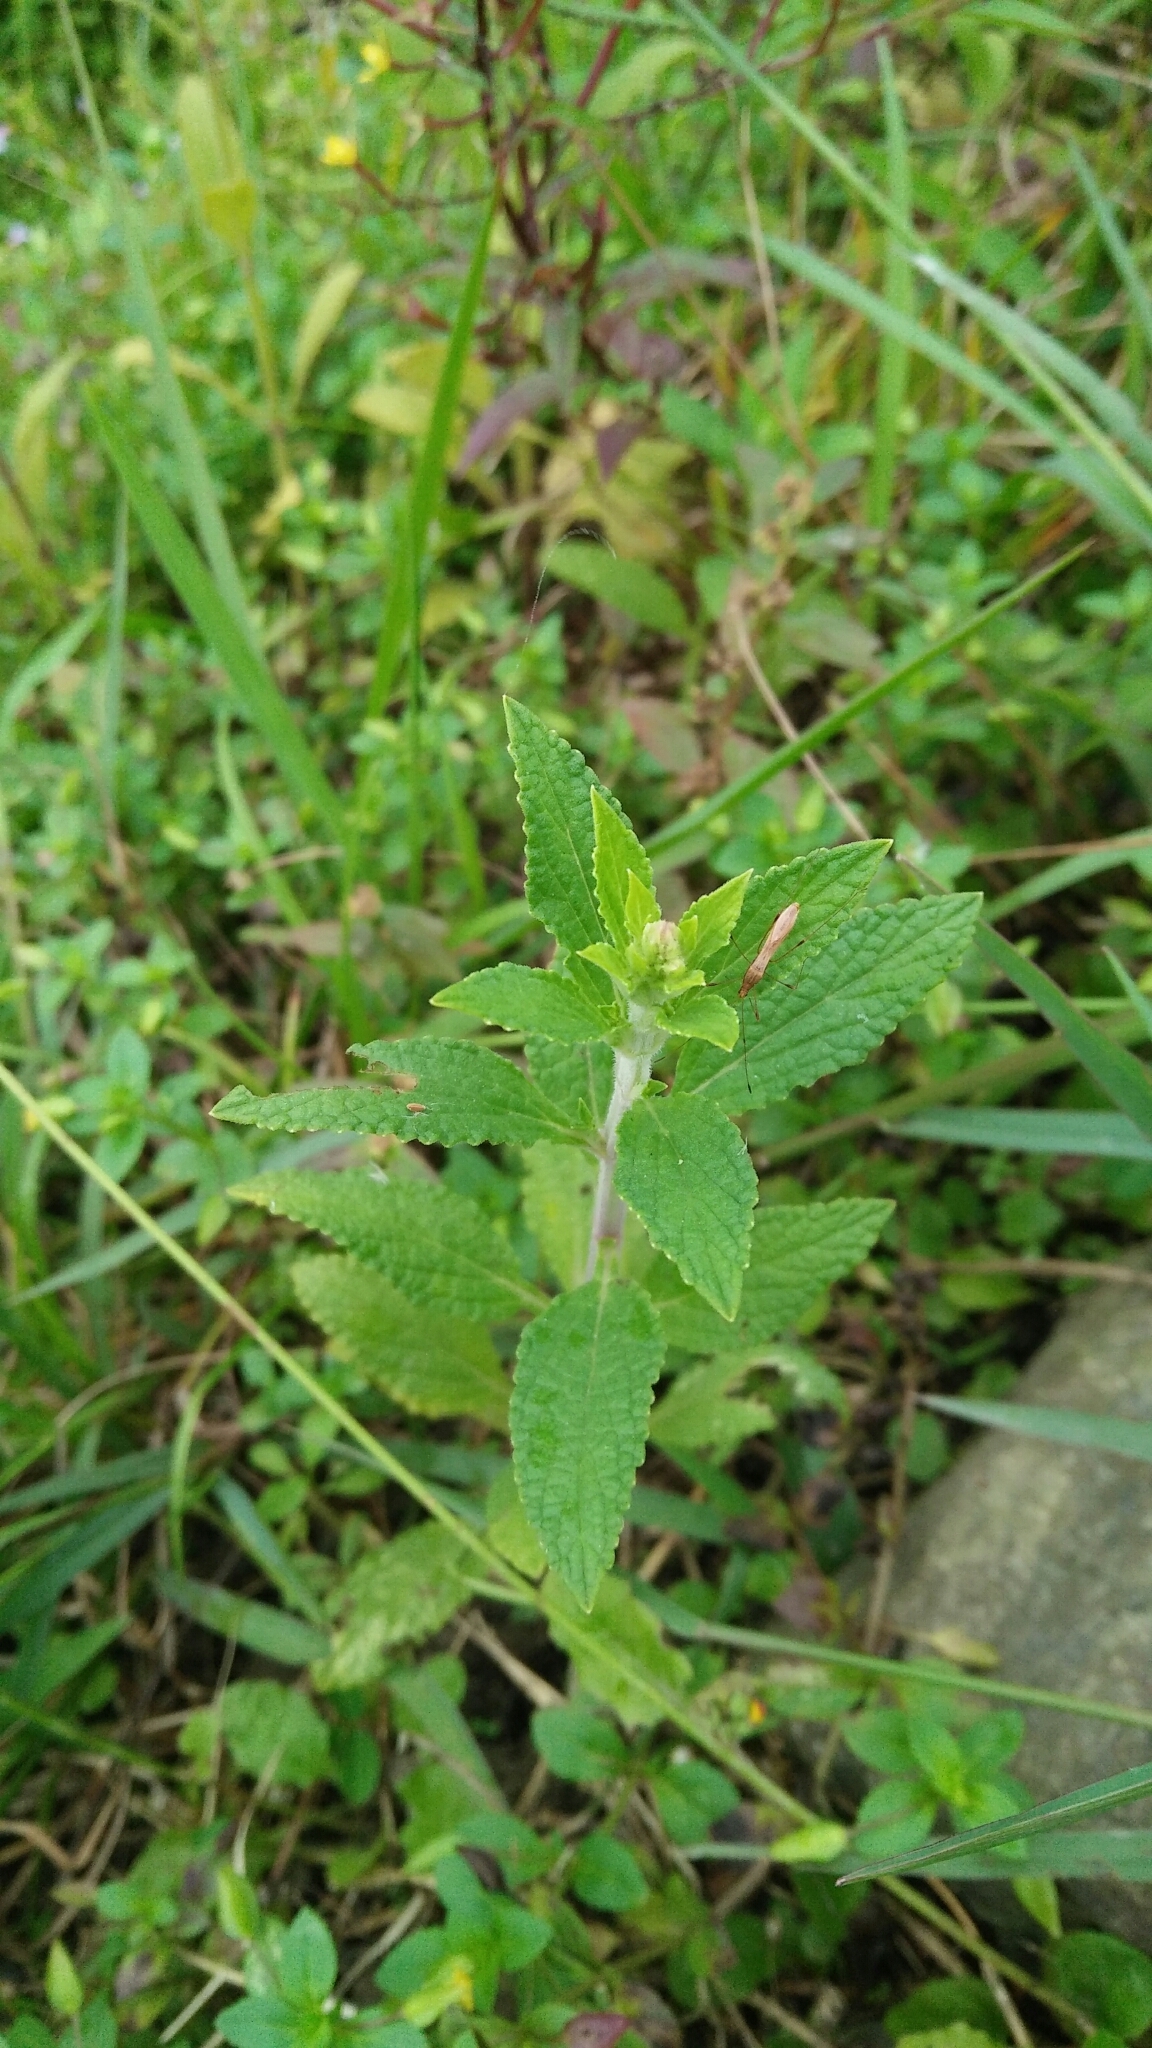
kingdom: Plantae
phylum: Tracheophyta
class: Magnoliopsida
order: Lamiales
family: Lamiaceae
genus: Salvia
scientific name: Salvia plebeia
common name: Australian sage
